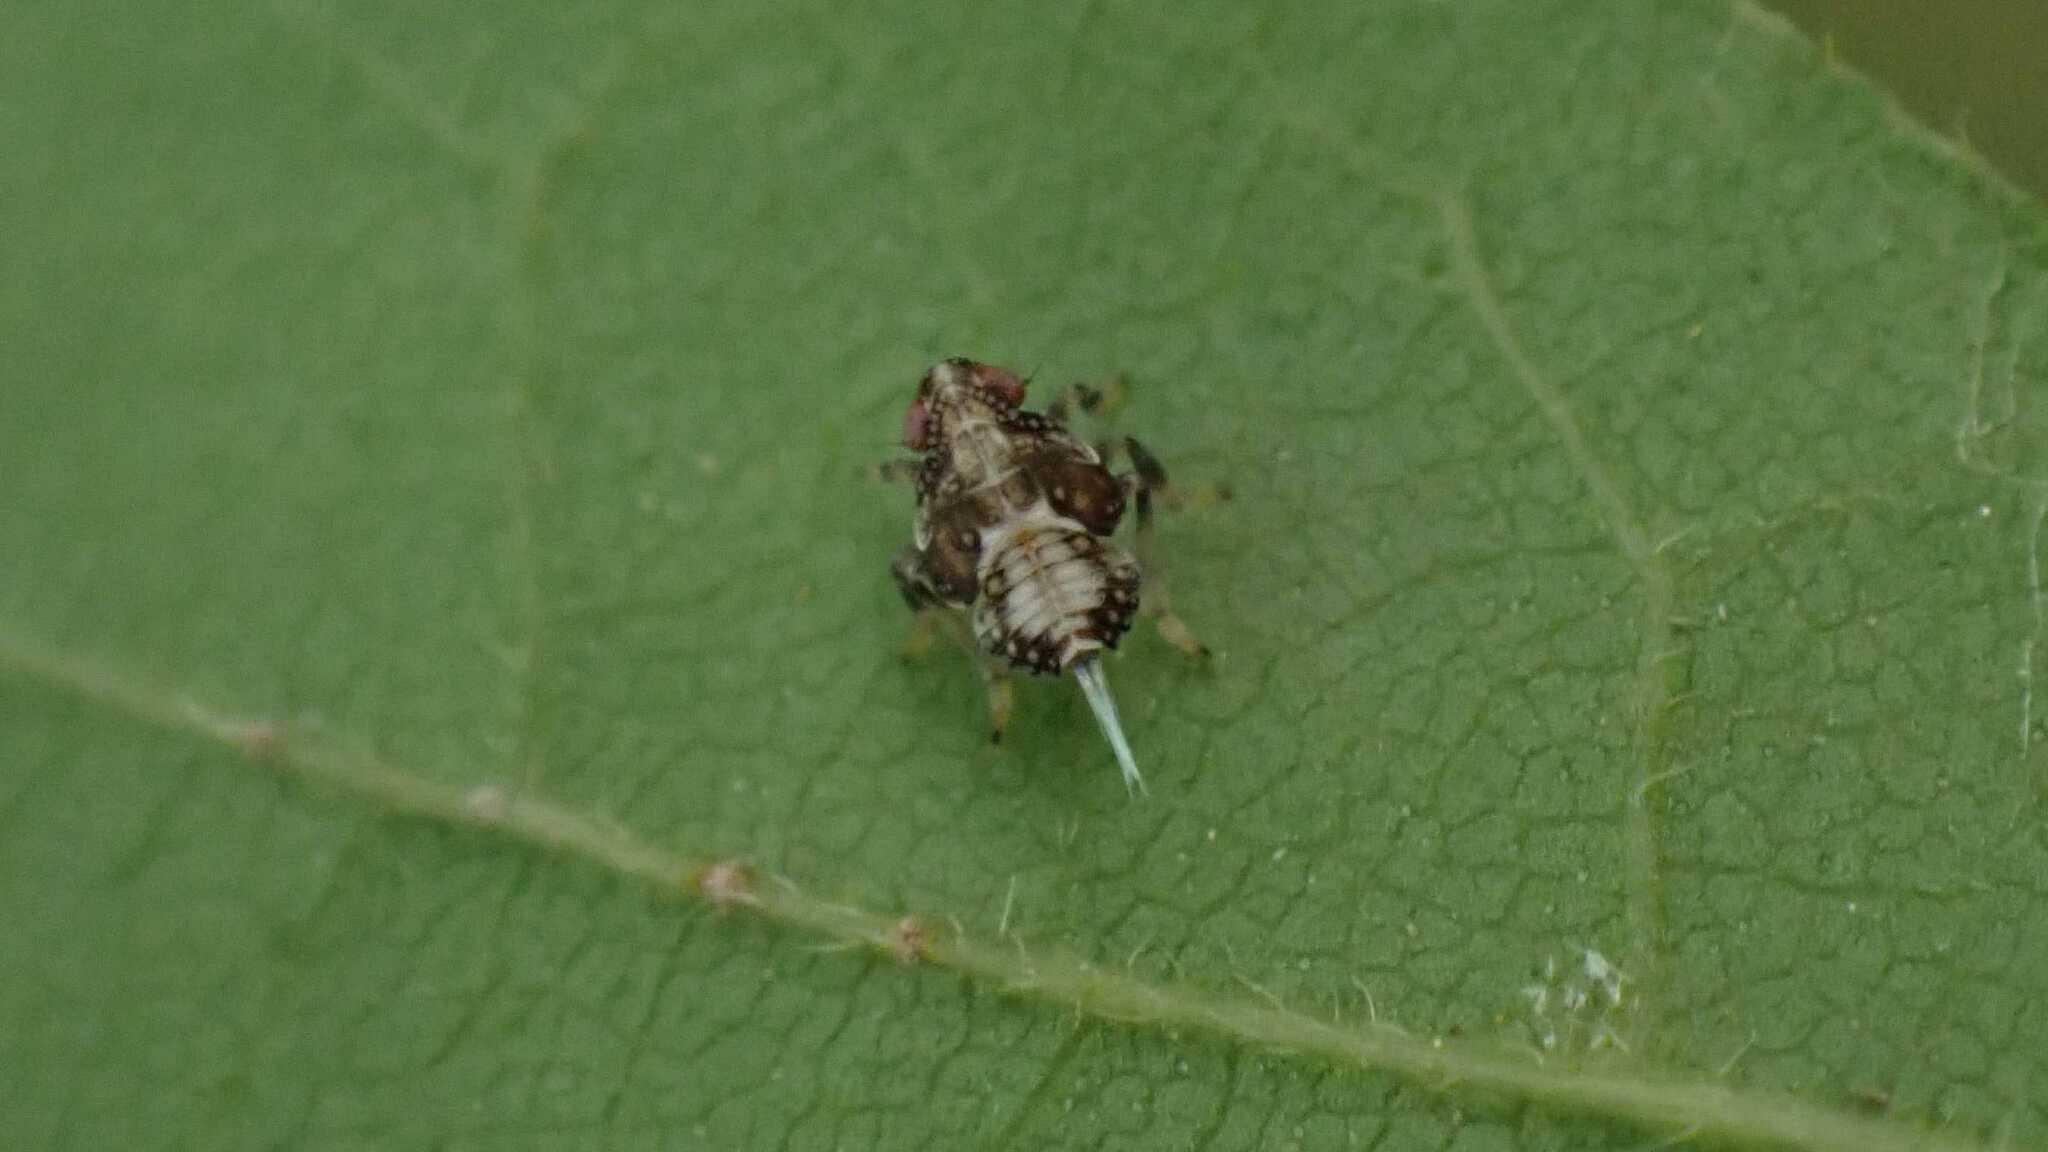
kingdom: Animalia
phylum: Arthropoda
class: Insecta
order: Hemiptera
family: Issidae
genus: Issus
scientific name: Issus
